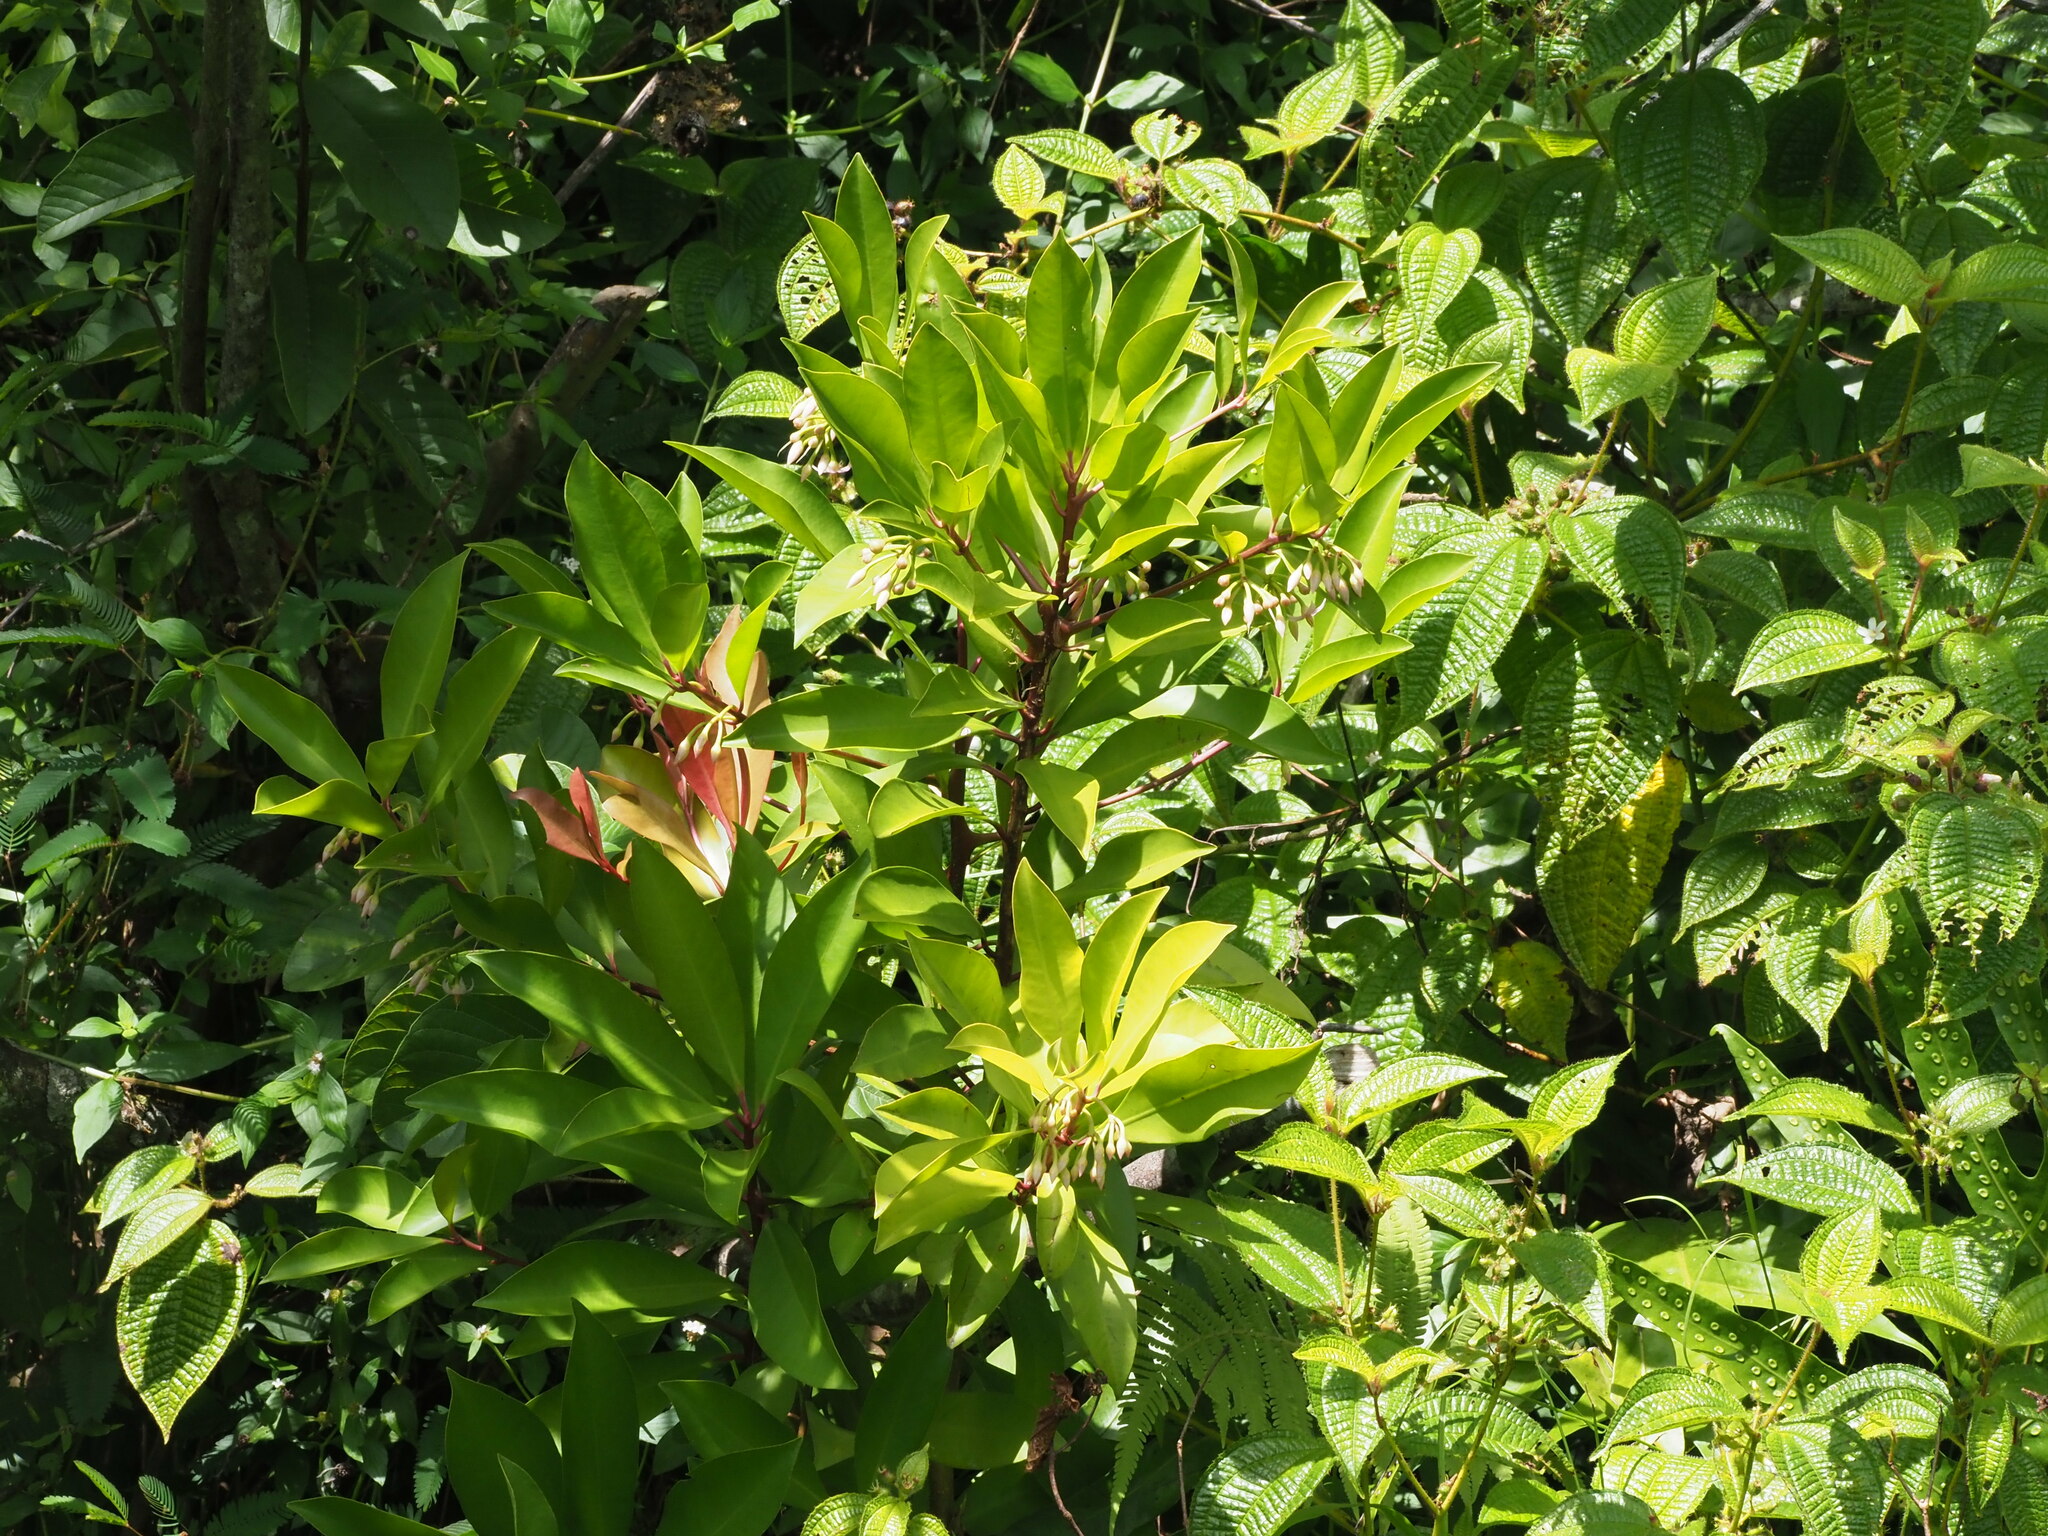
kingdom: Plantae
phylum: Tracheophyta
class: Magnoliopsida
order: Ericales
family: Primulaceae
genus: Ardisia
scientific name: Ardisia elliptica
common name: Shoebutton
